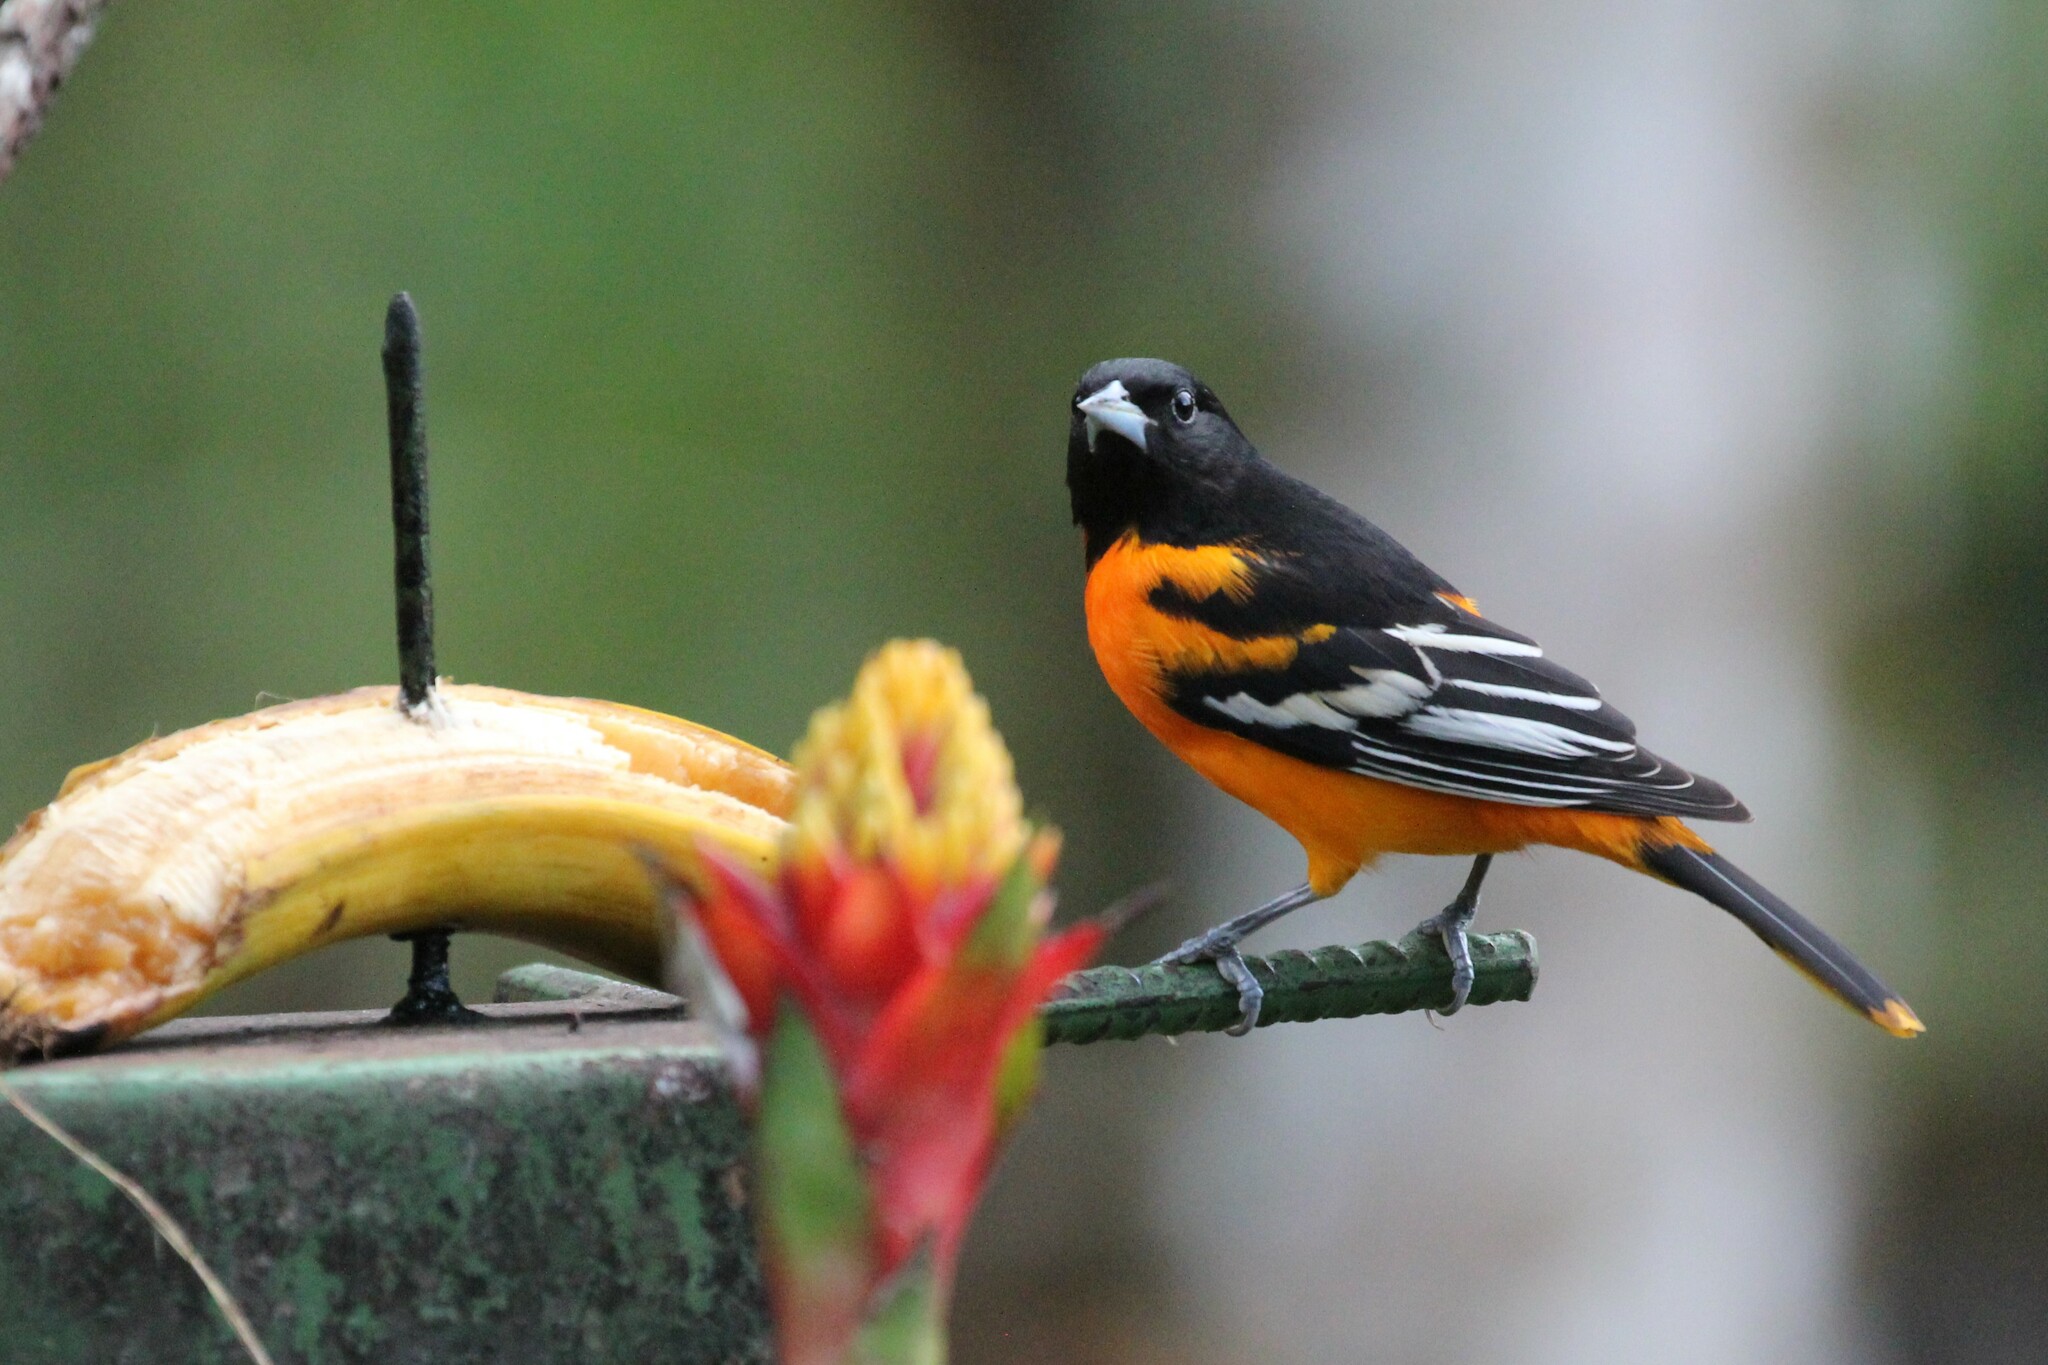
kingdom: Animalia
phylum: Chordata
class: Aves
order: Passeriformes
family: Icteridae
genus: Icterus
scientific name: Icterus galbula
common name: Baltimore oriole
